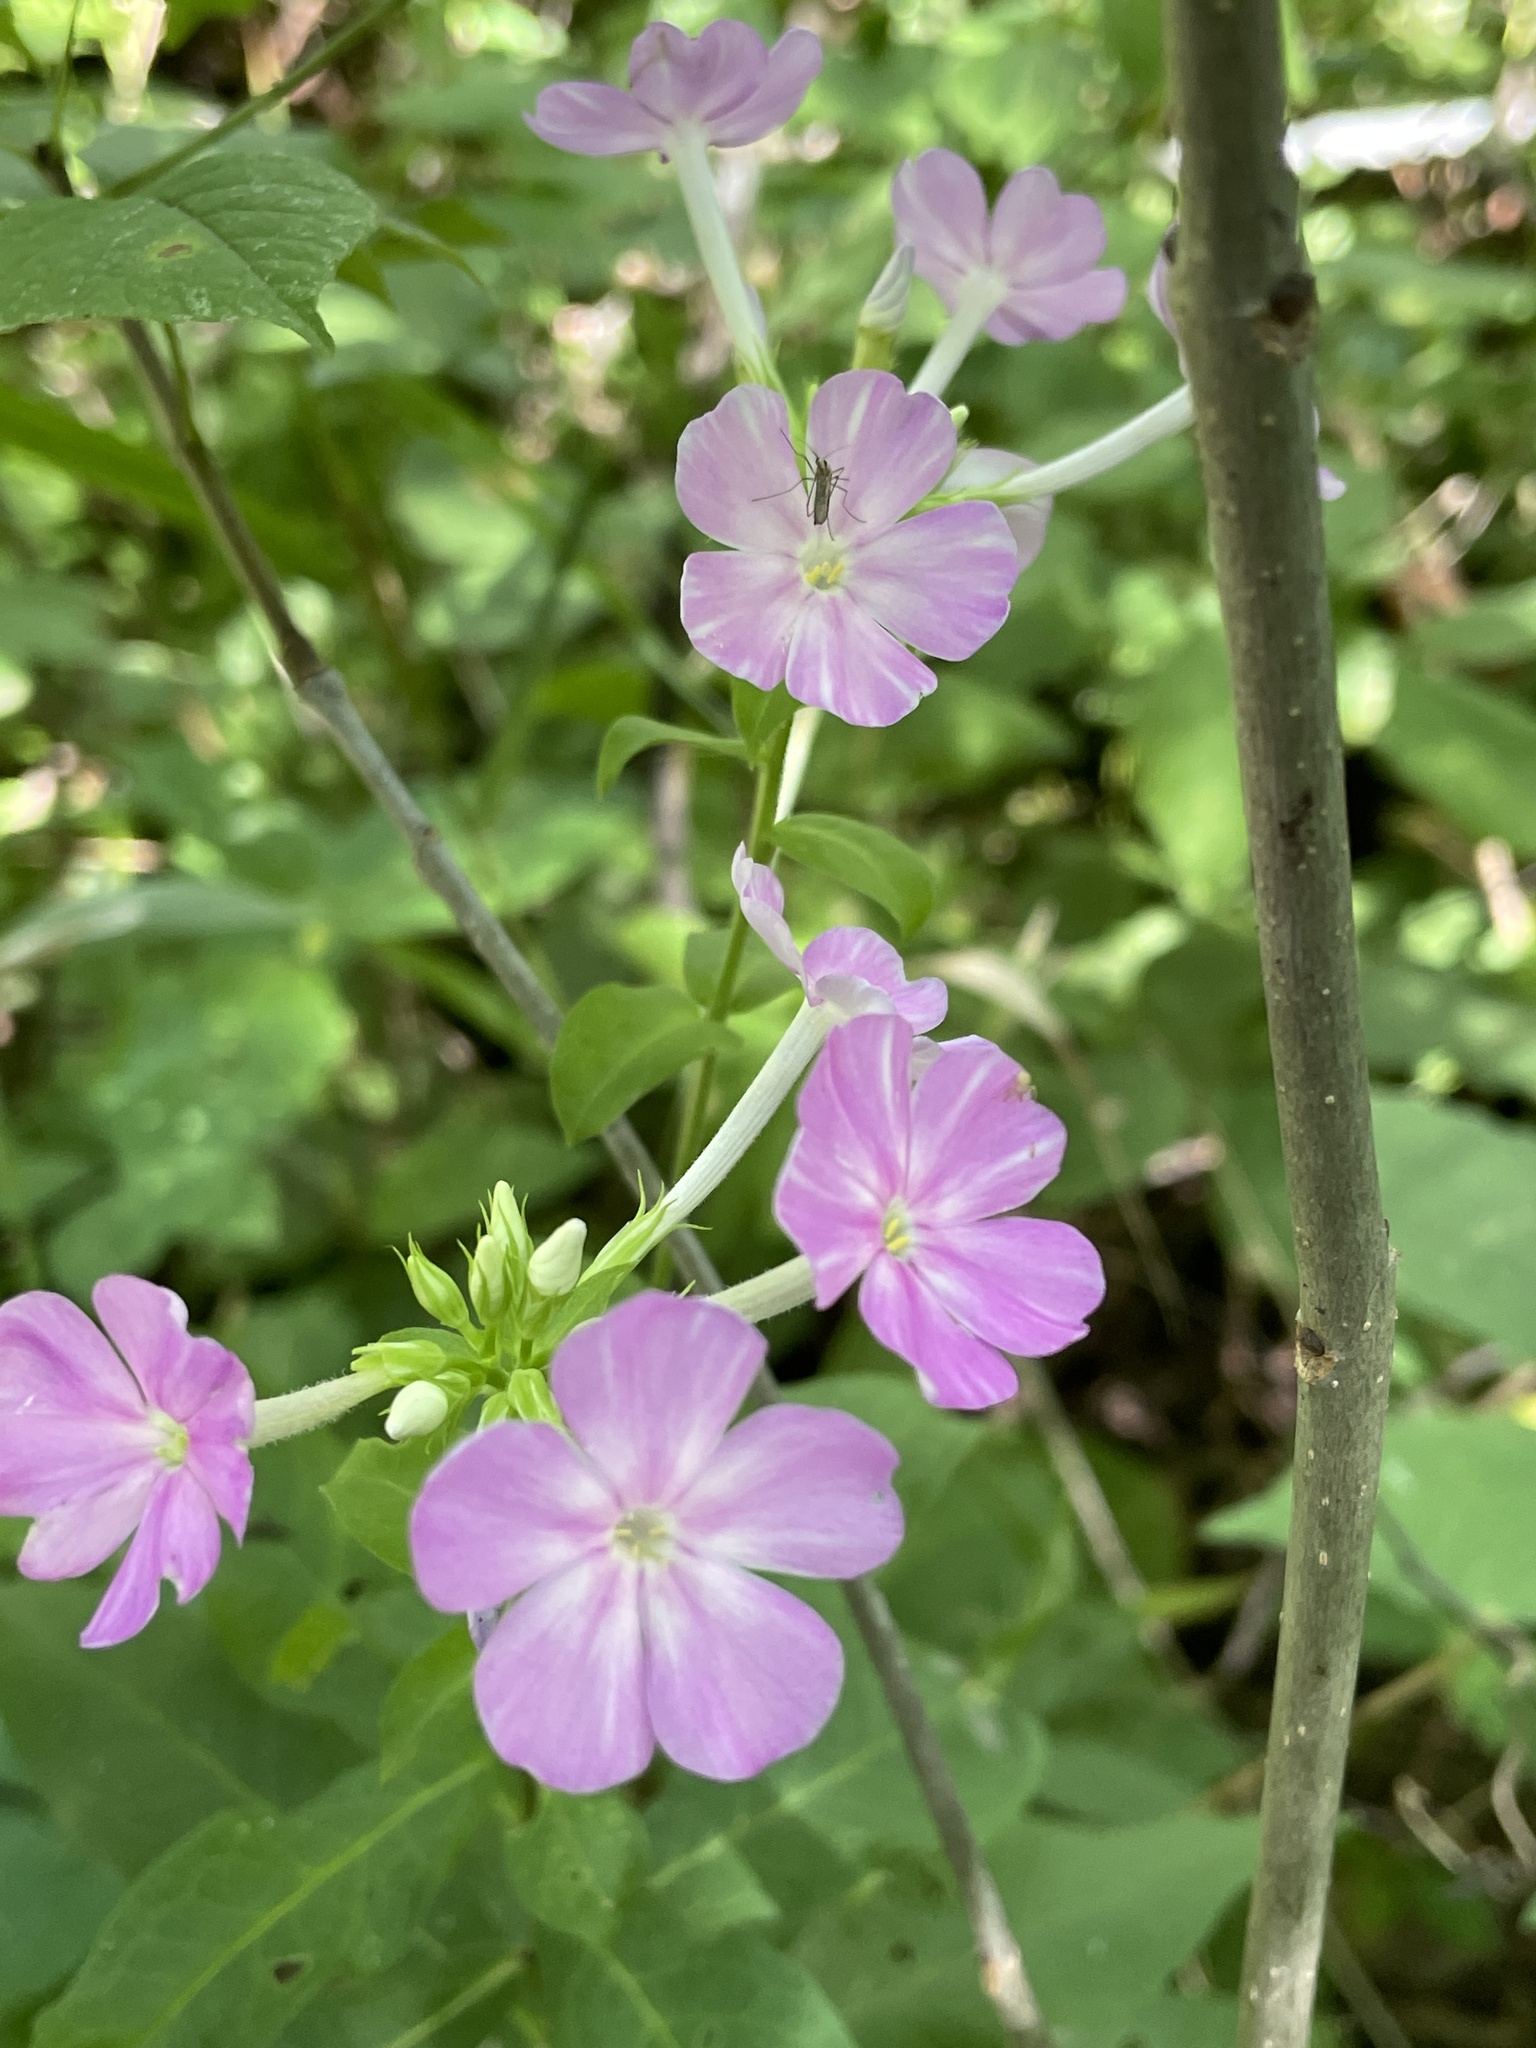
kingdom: Plantae
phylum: Tracheophyta
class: Magnoliopsida
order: Ericales
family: Polemoniaceae
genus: Phlox
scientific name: Phlox paniculata
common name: Fall phlox
